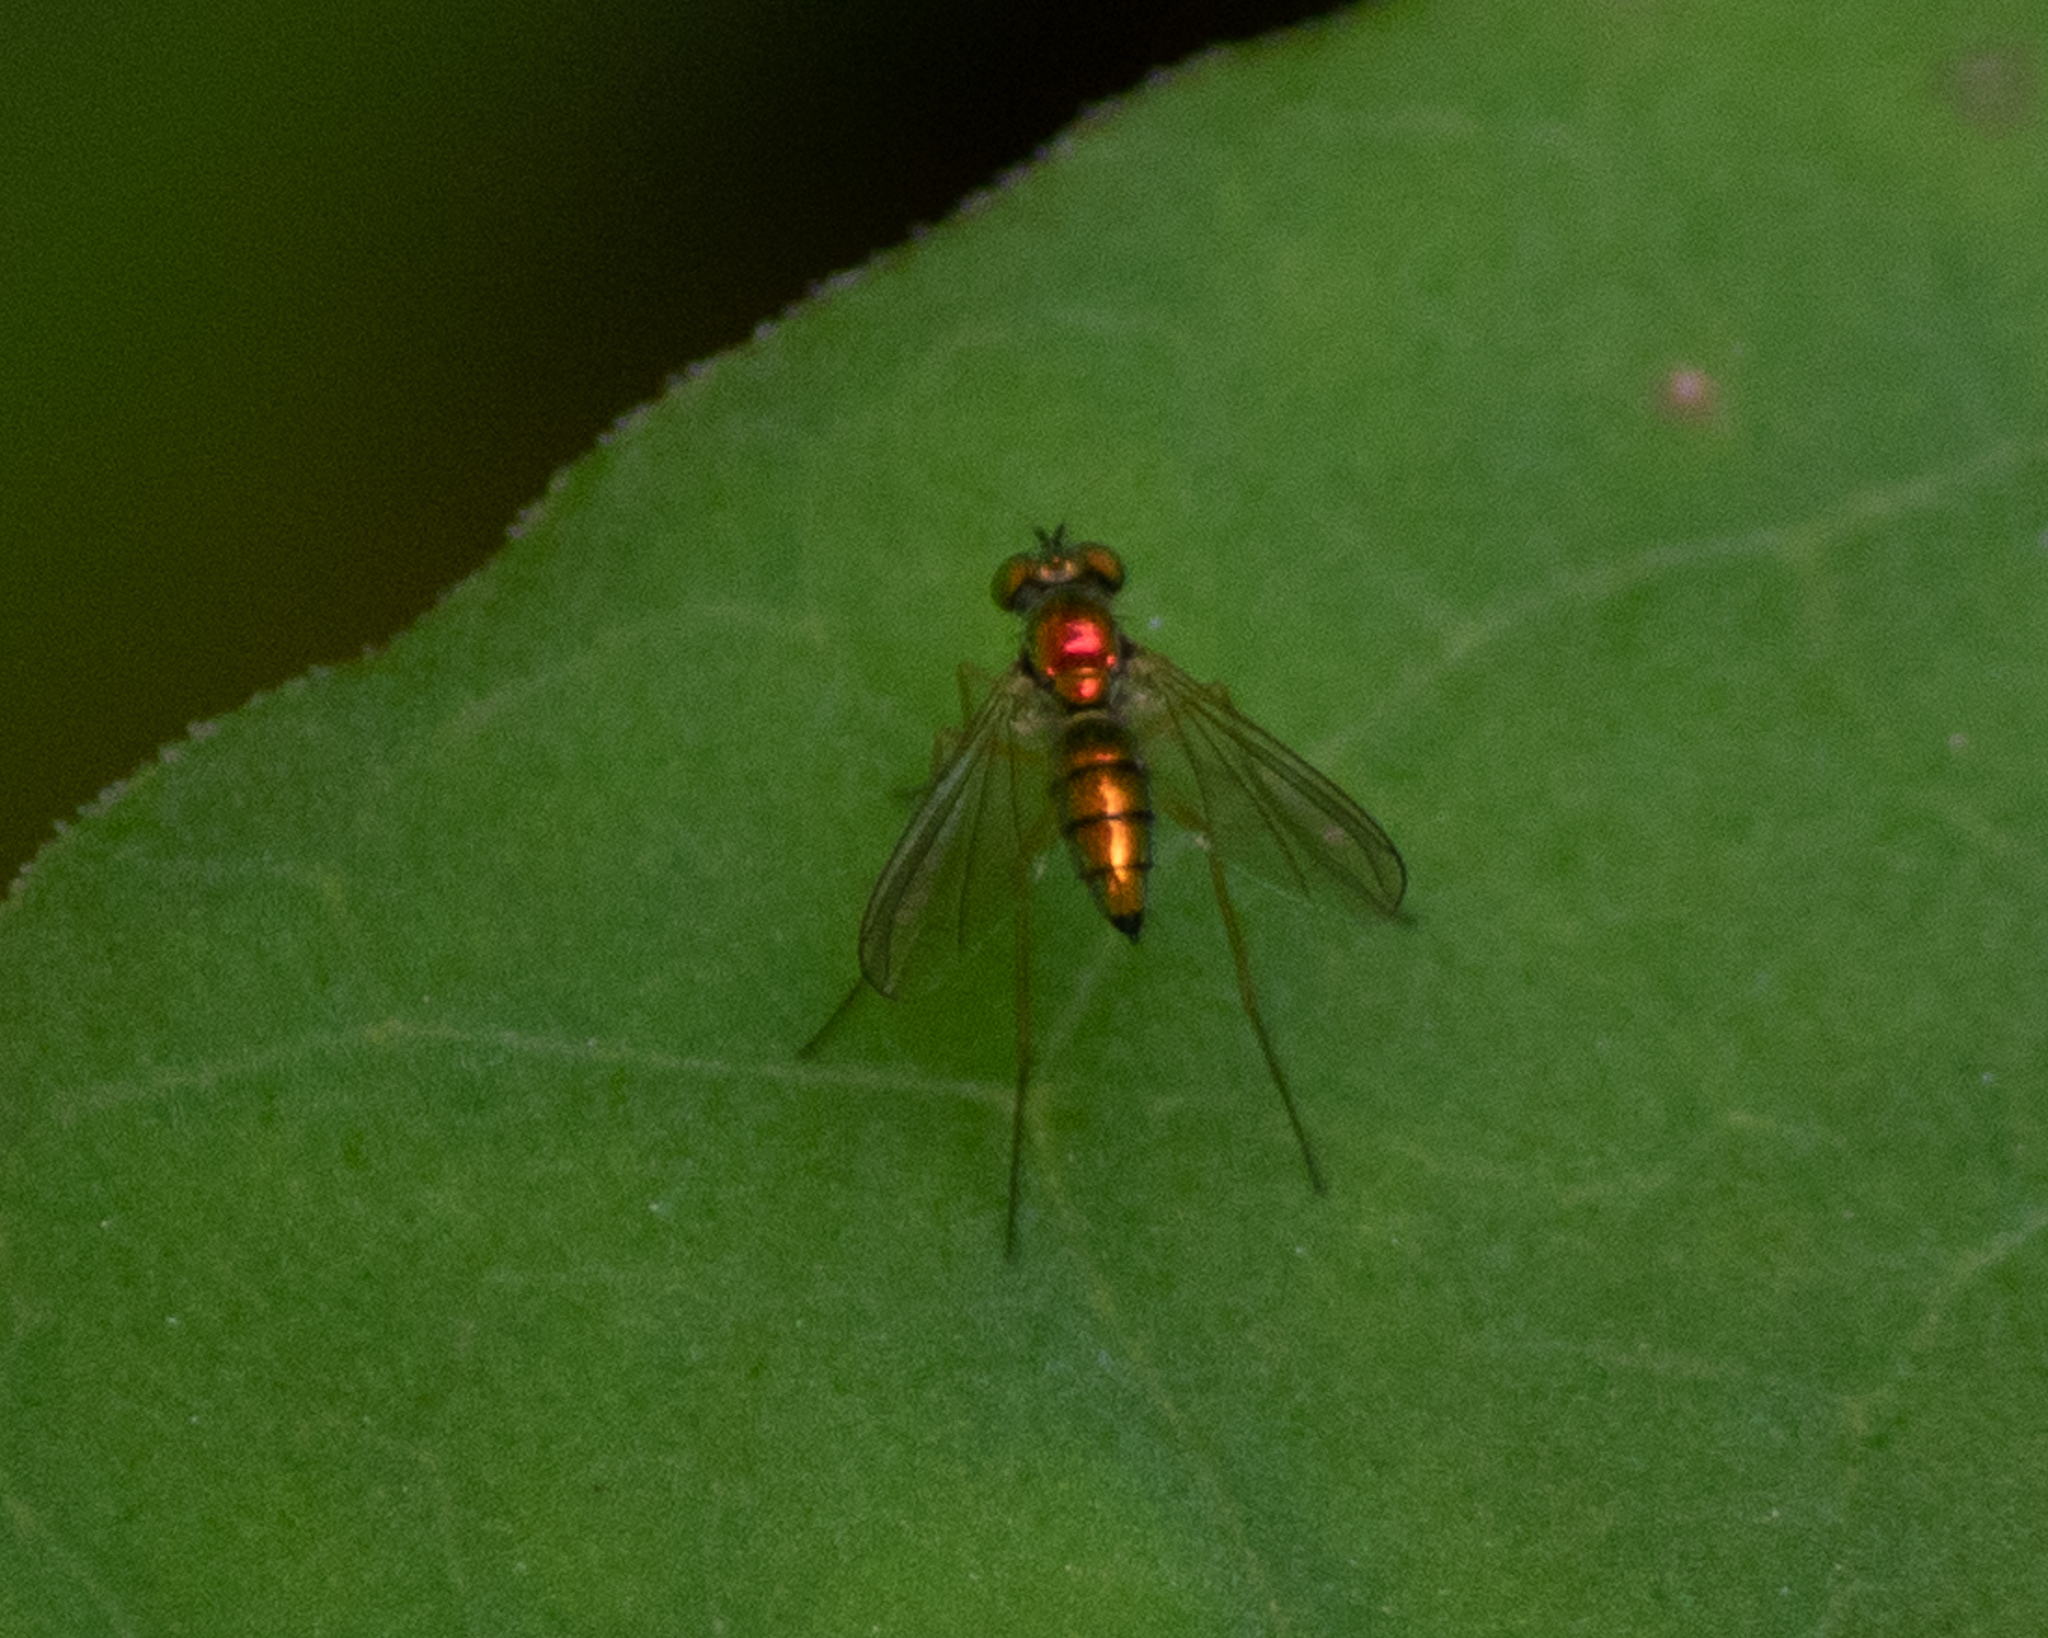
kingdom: Animalia
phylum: Arthropoda
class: Insecta
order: Diptera
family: Dolichopodidae
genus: Amblypsilopus
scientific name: Amblypsilopus scintillans
